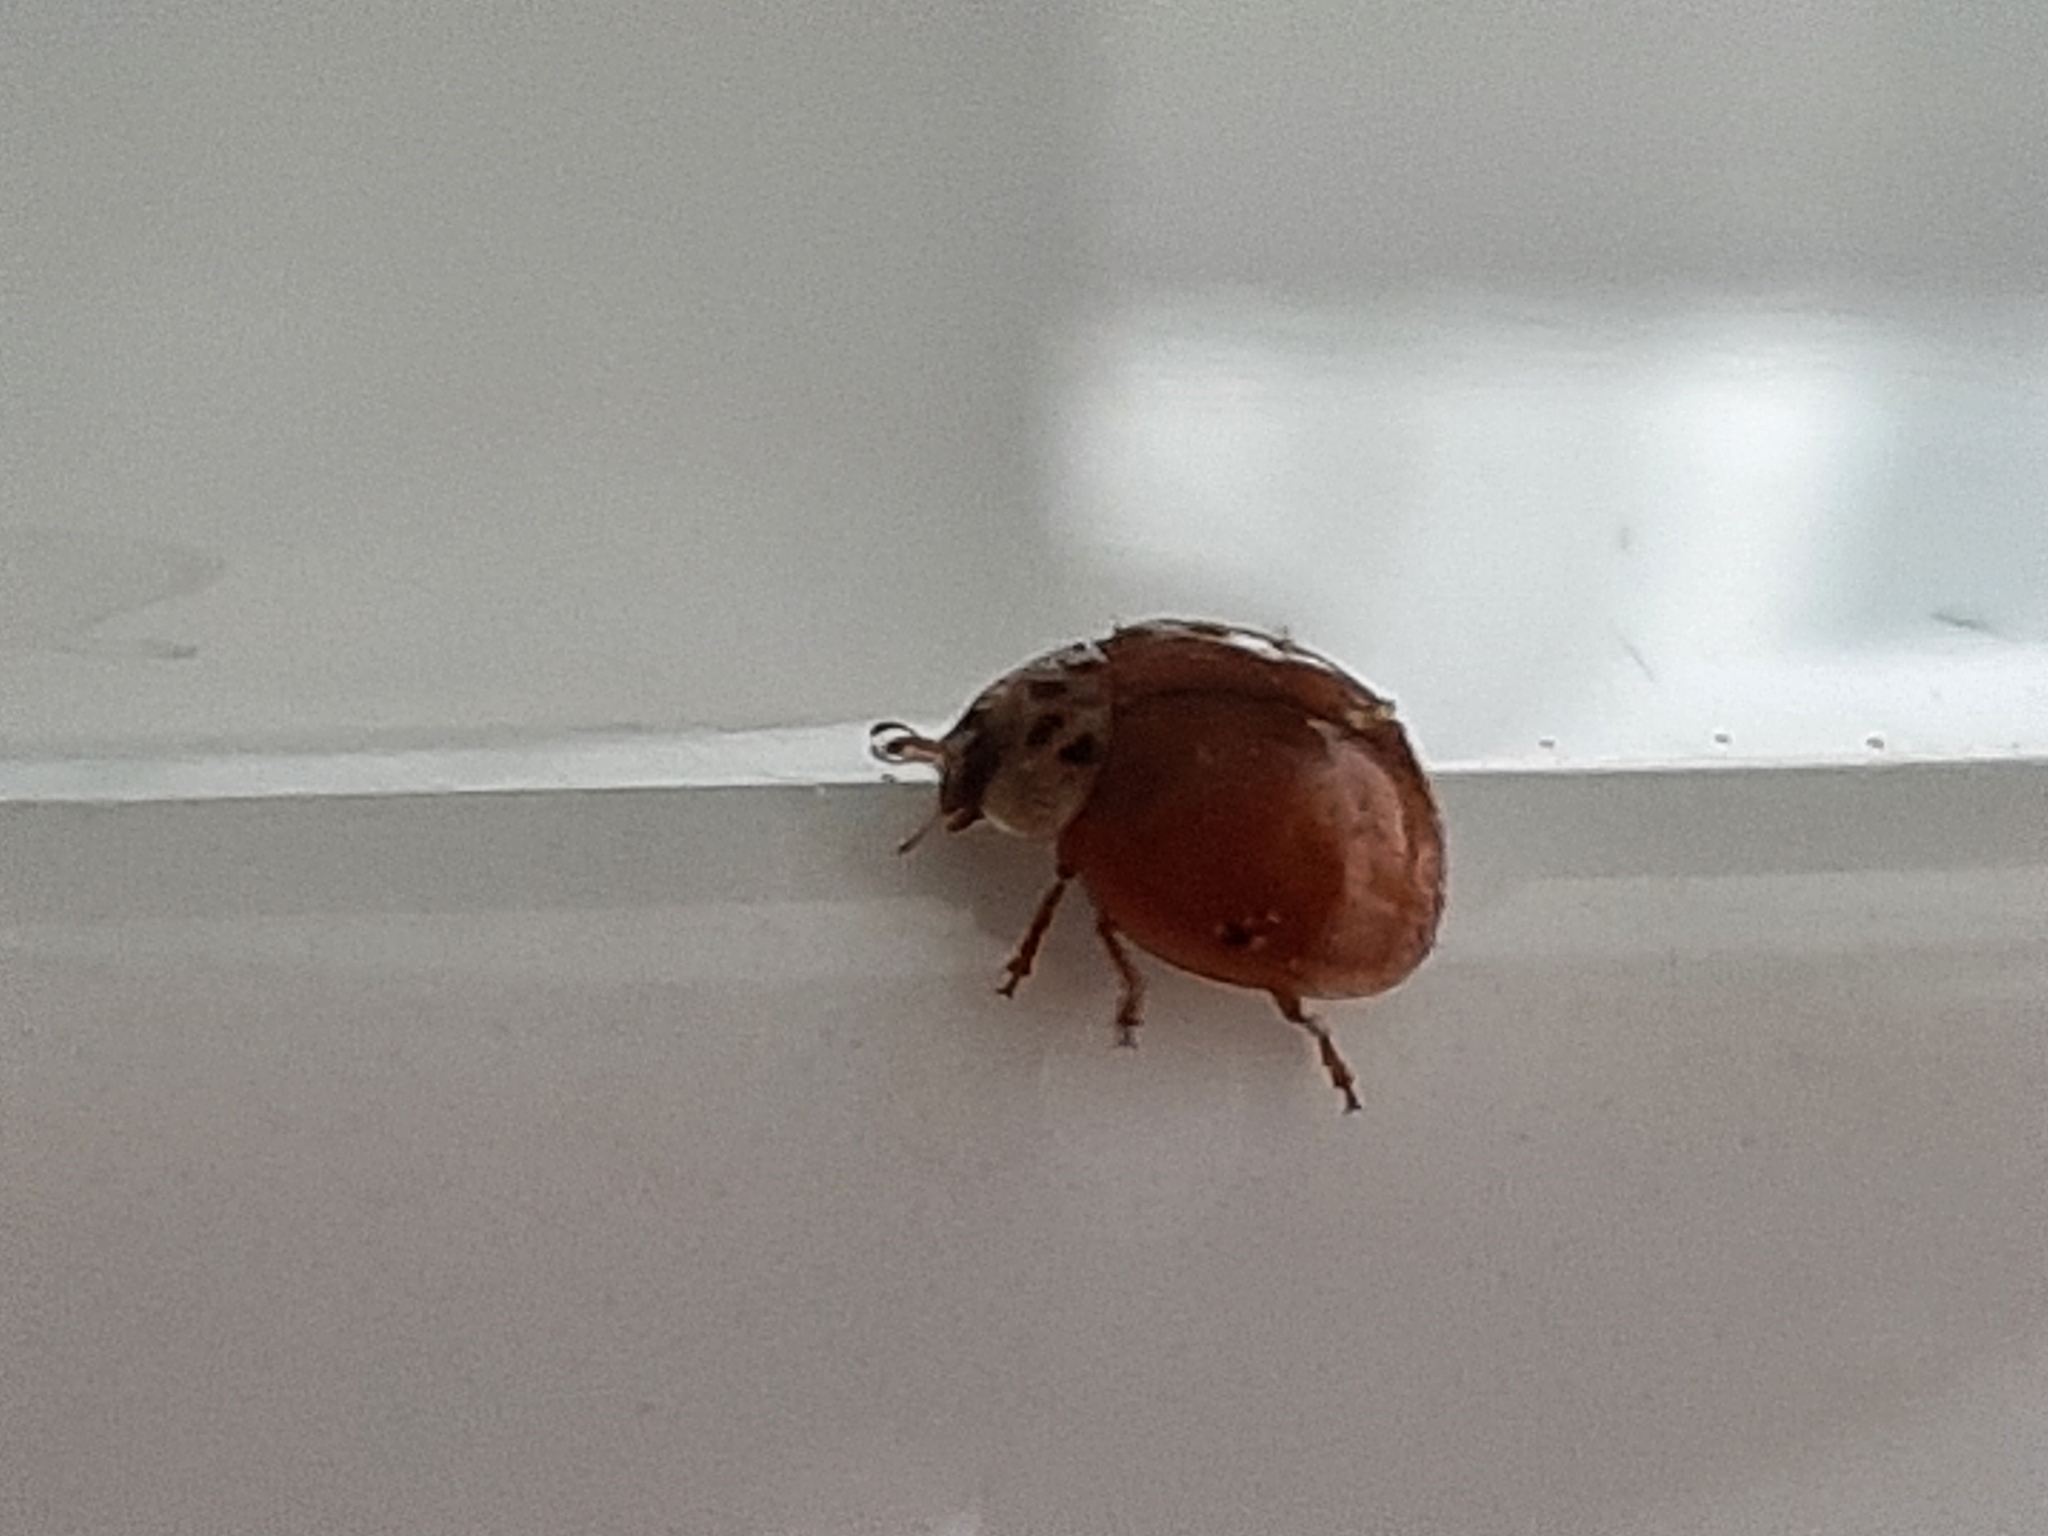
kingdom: Animalia
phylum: Arthropoda
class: Insecta
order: Coleoptera
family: Coccinellidae
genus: Harmonia
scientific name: Harmonia axyridis
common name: Harlequin ladybird
